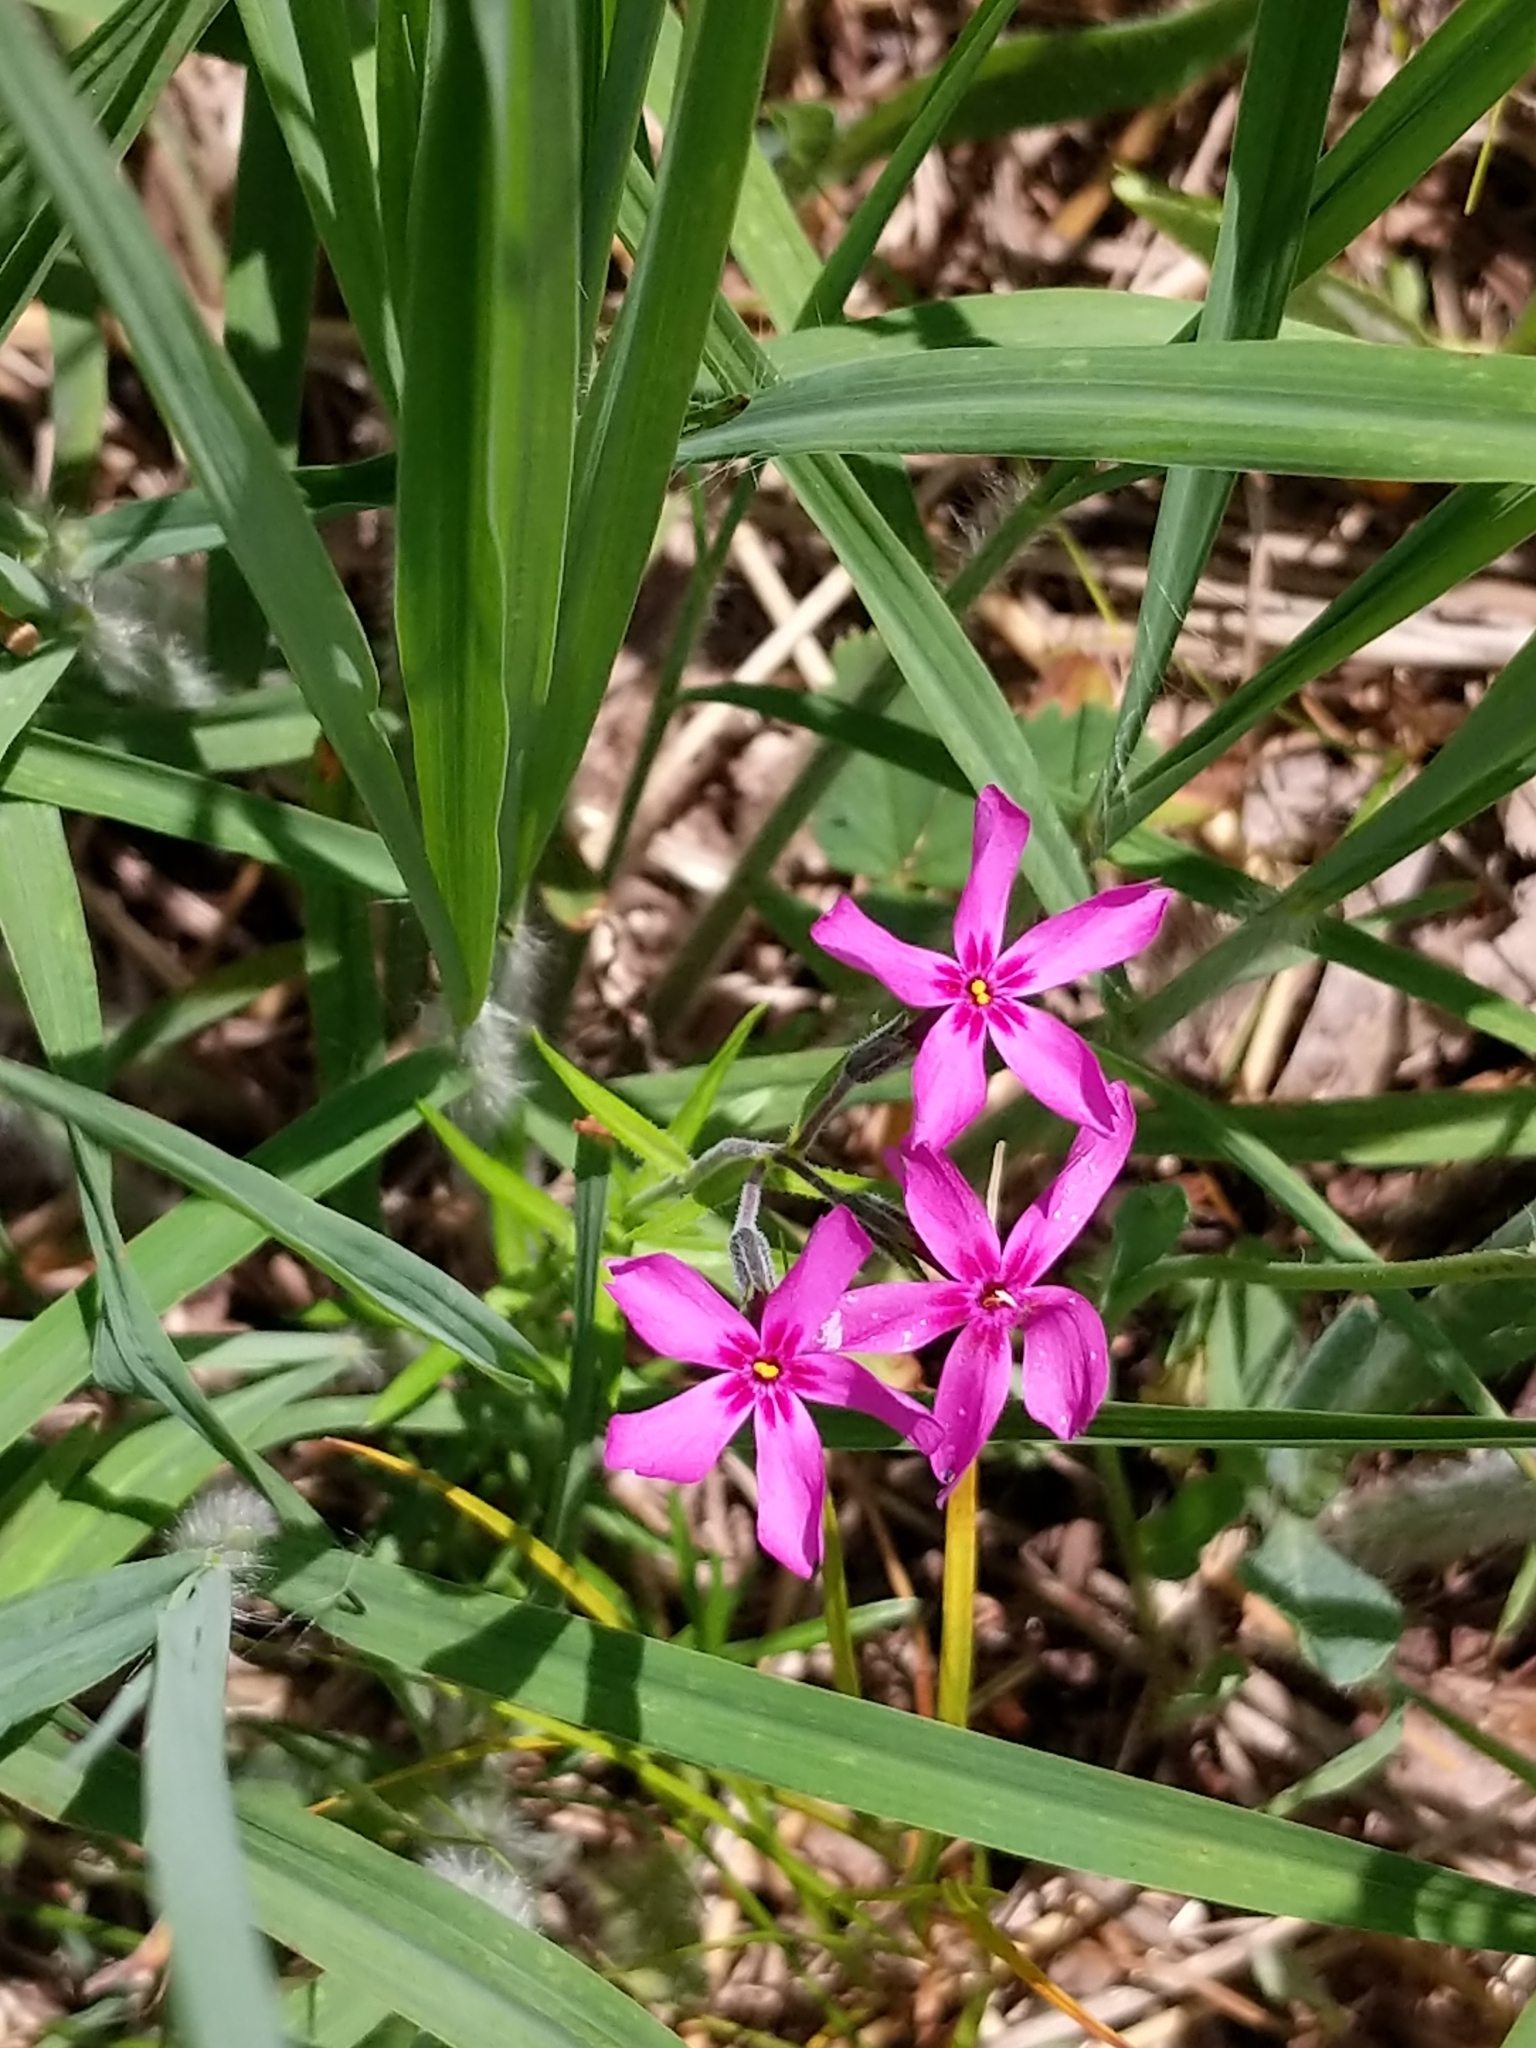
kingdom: Plantae
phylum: Tracheophyta
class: Magnoliopsida
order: Ericales
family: Polemoniaceae
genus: Phlox
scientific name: Phlox subulata
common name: Moss phlox
